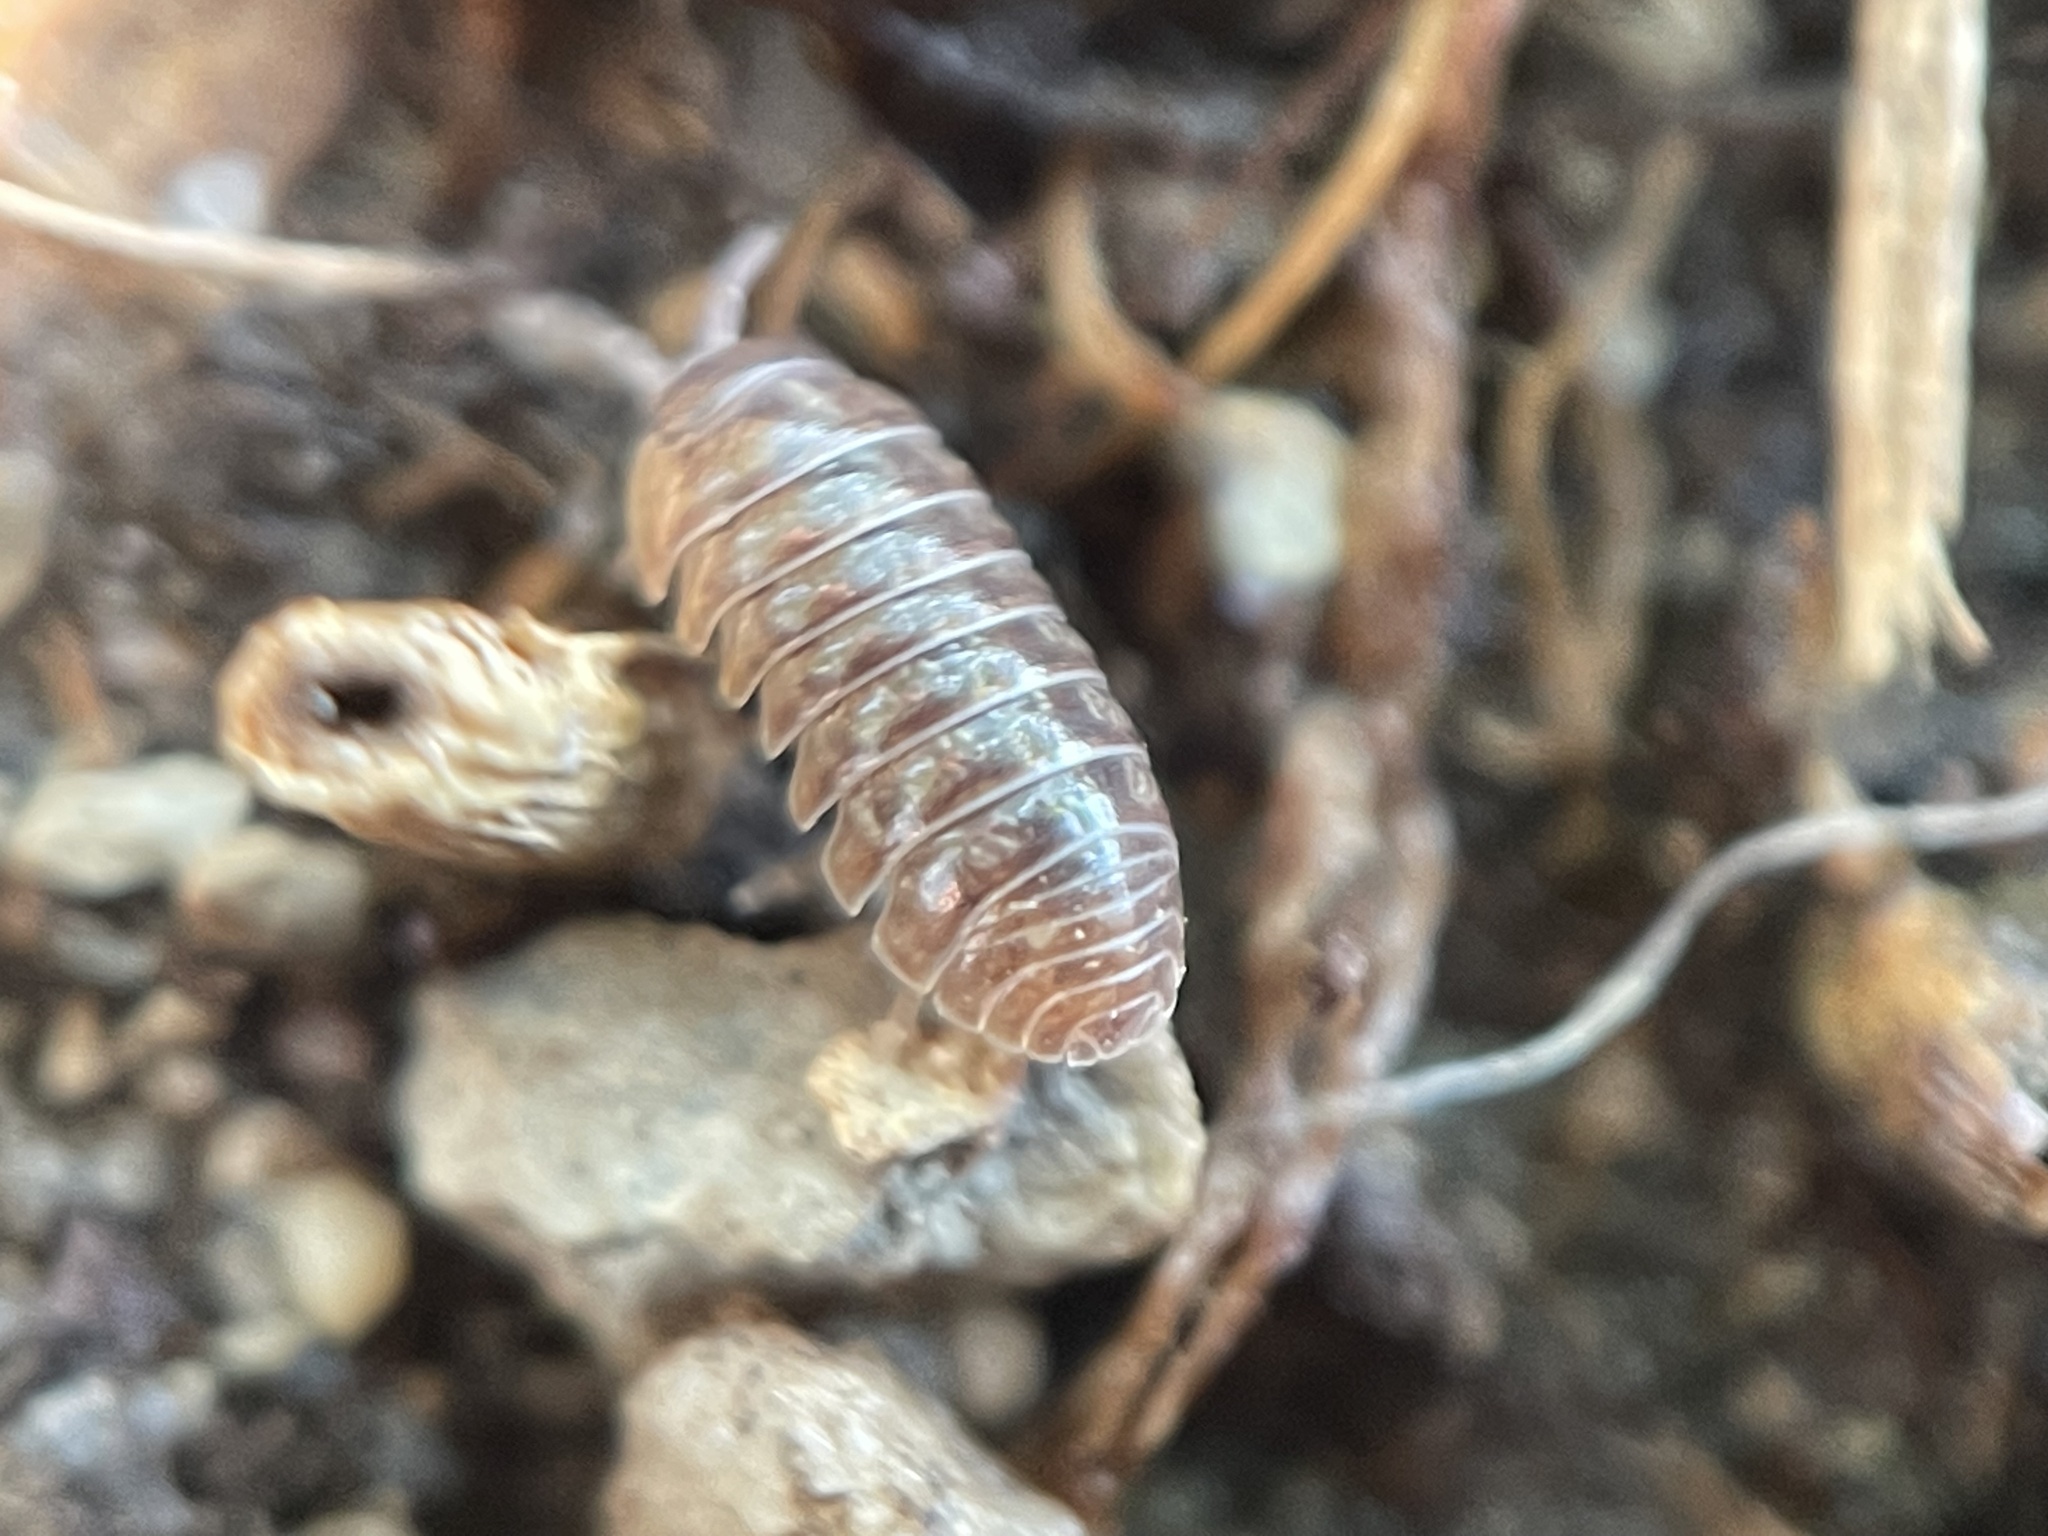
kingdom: Animalia
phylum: Arthropoda
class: Malacostraca
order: Isopoda
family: Armadillidiidae
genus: Armadillidium
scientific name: Armadillidium vulgare
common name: Common pill woodlouse
